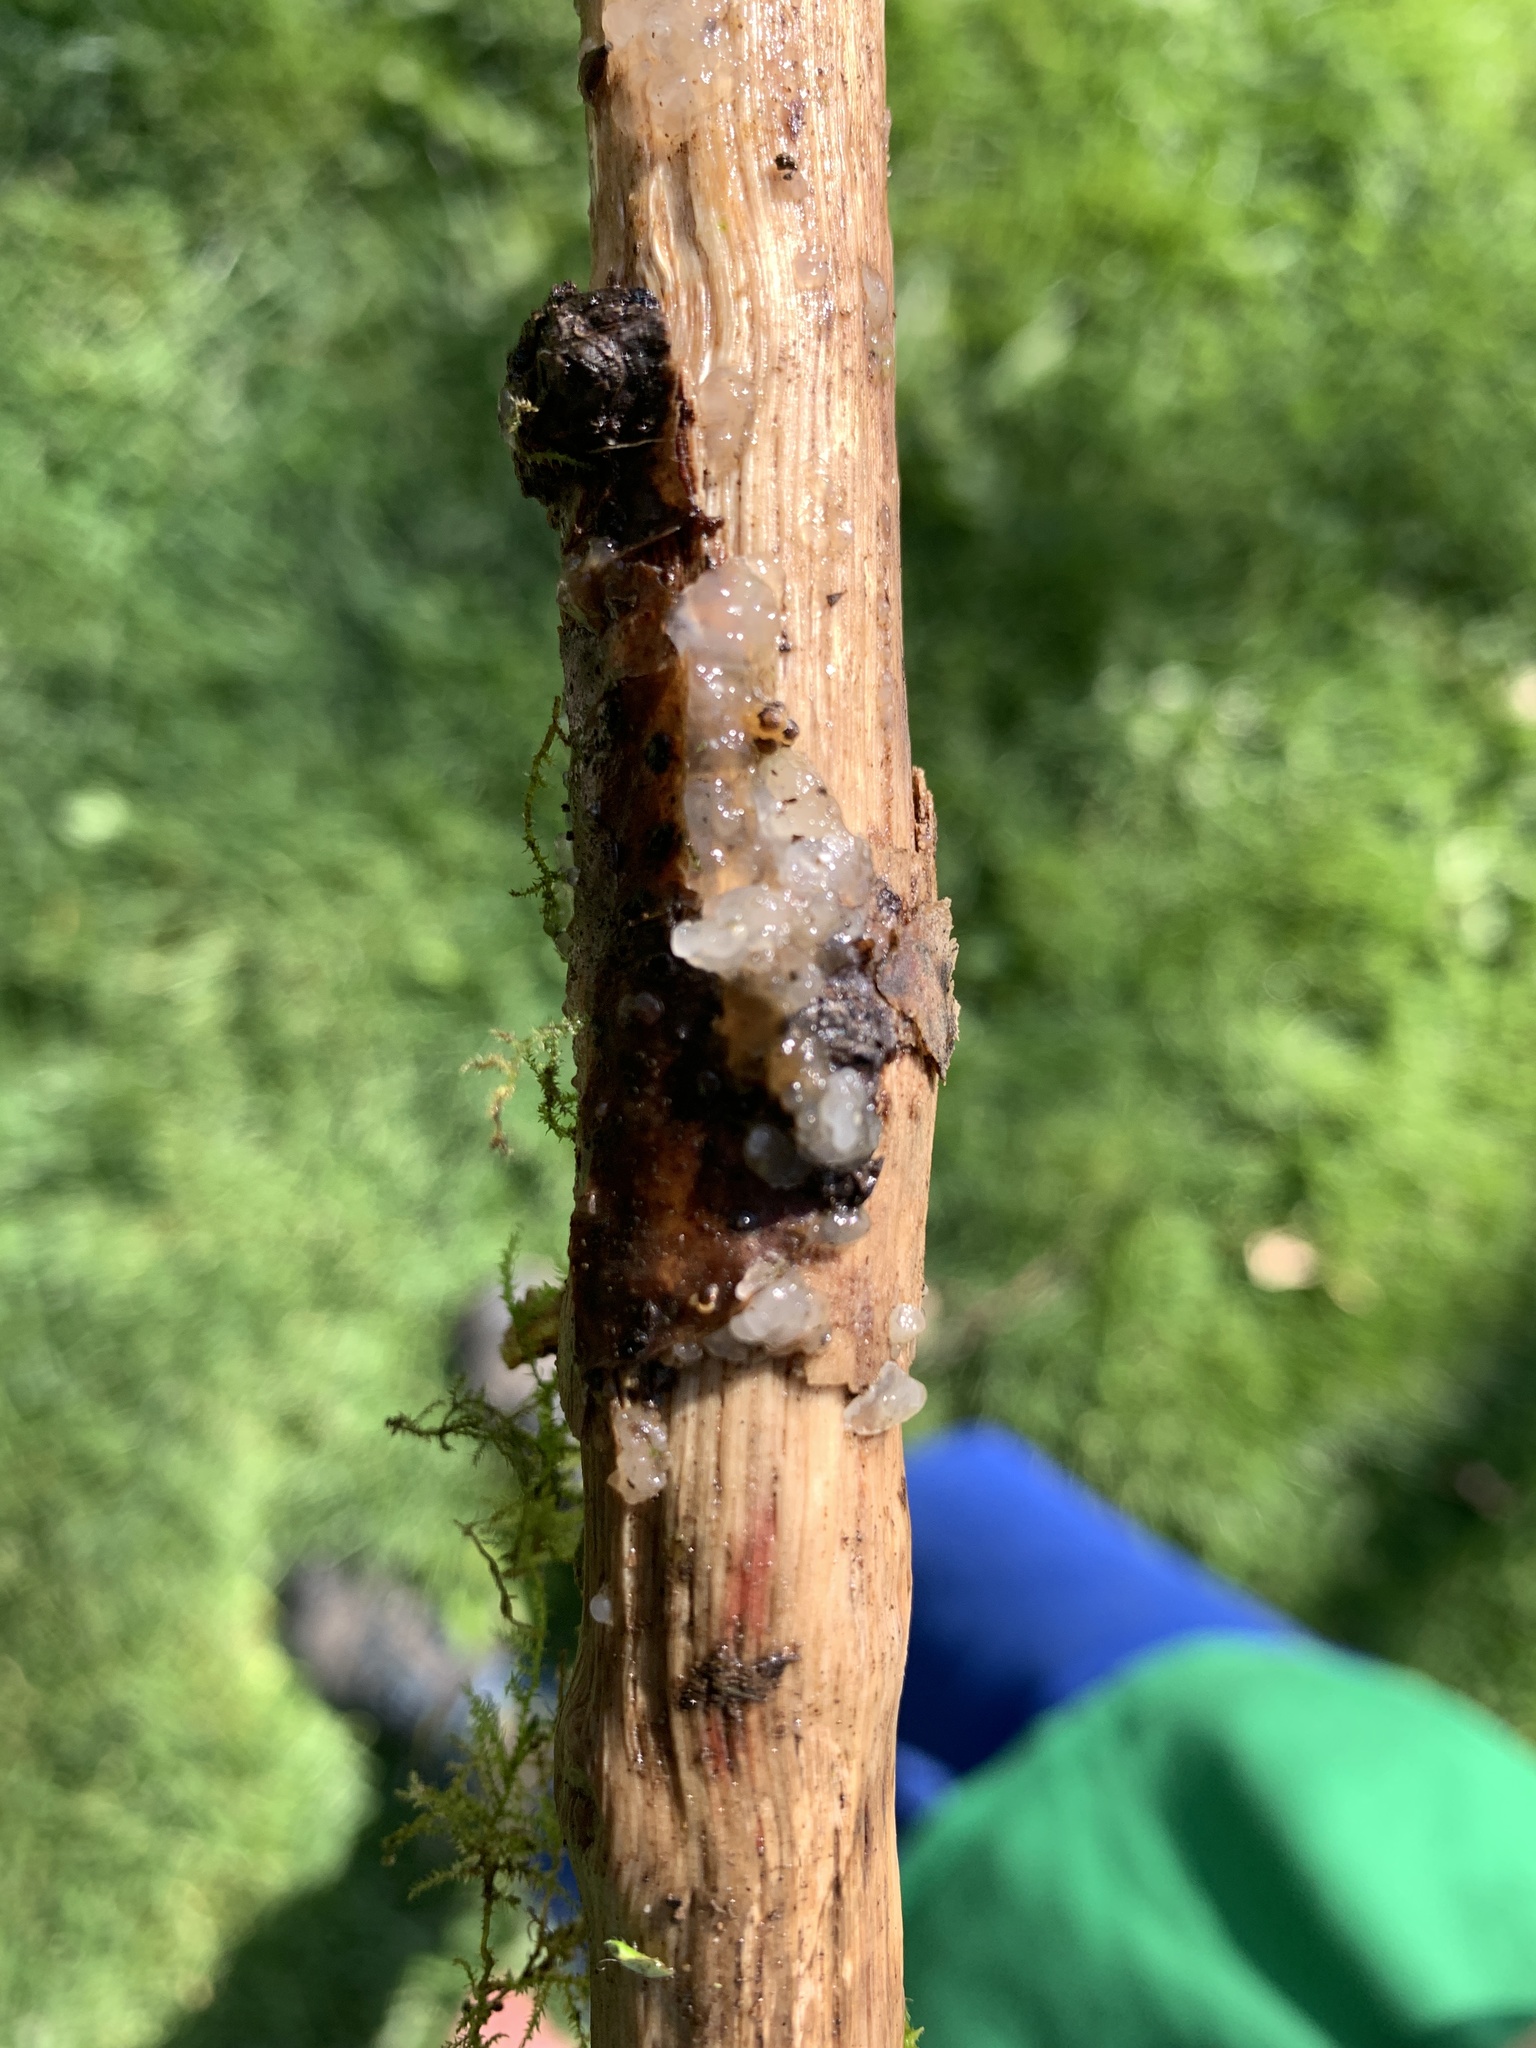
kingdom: Fungi
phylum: Basidiomycota
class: Agaricomycetes
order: Auriculariales
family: Hyaloriaceae
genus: Myxarium
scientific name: Myxarium nucleatum
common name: Crystal brain fungus
